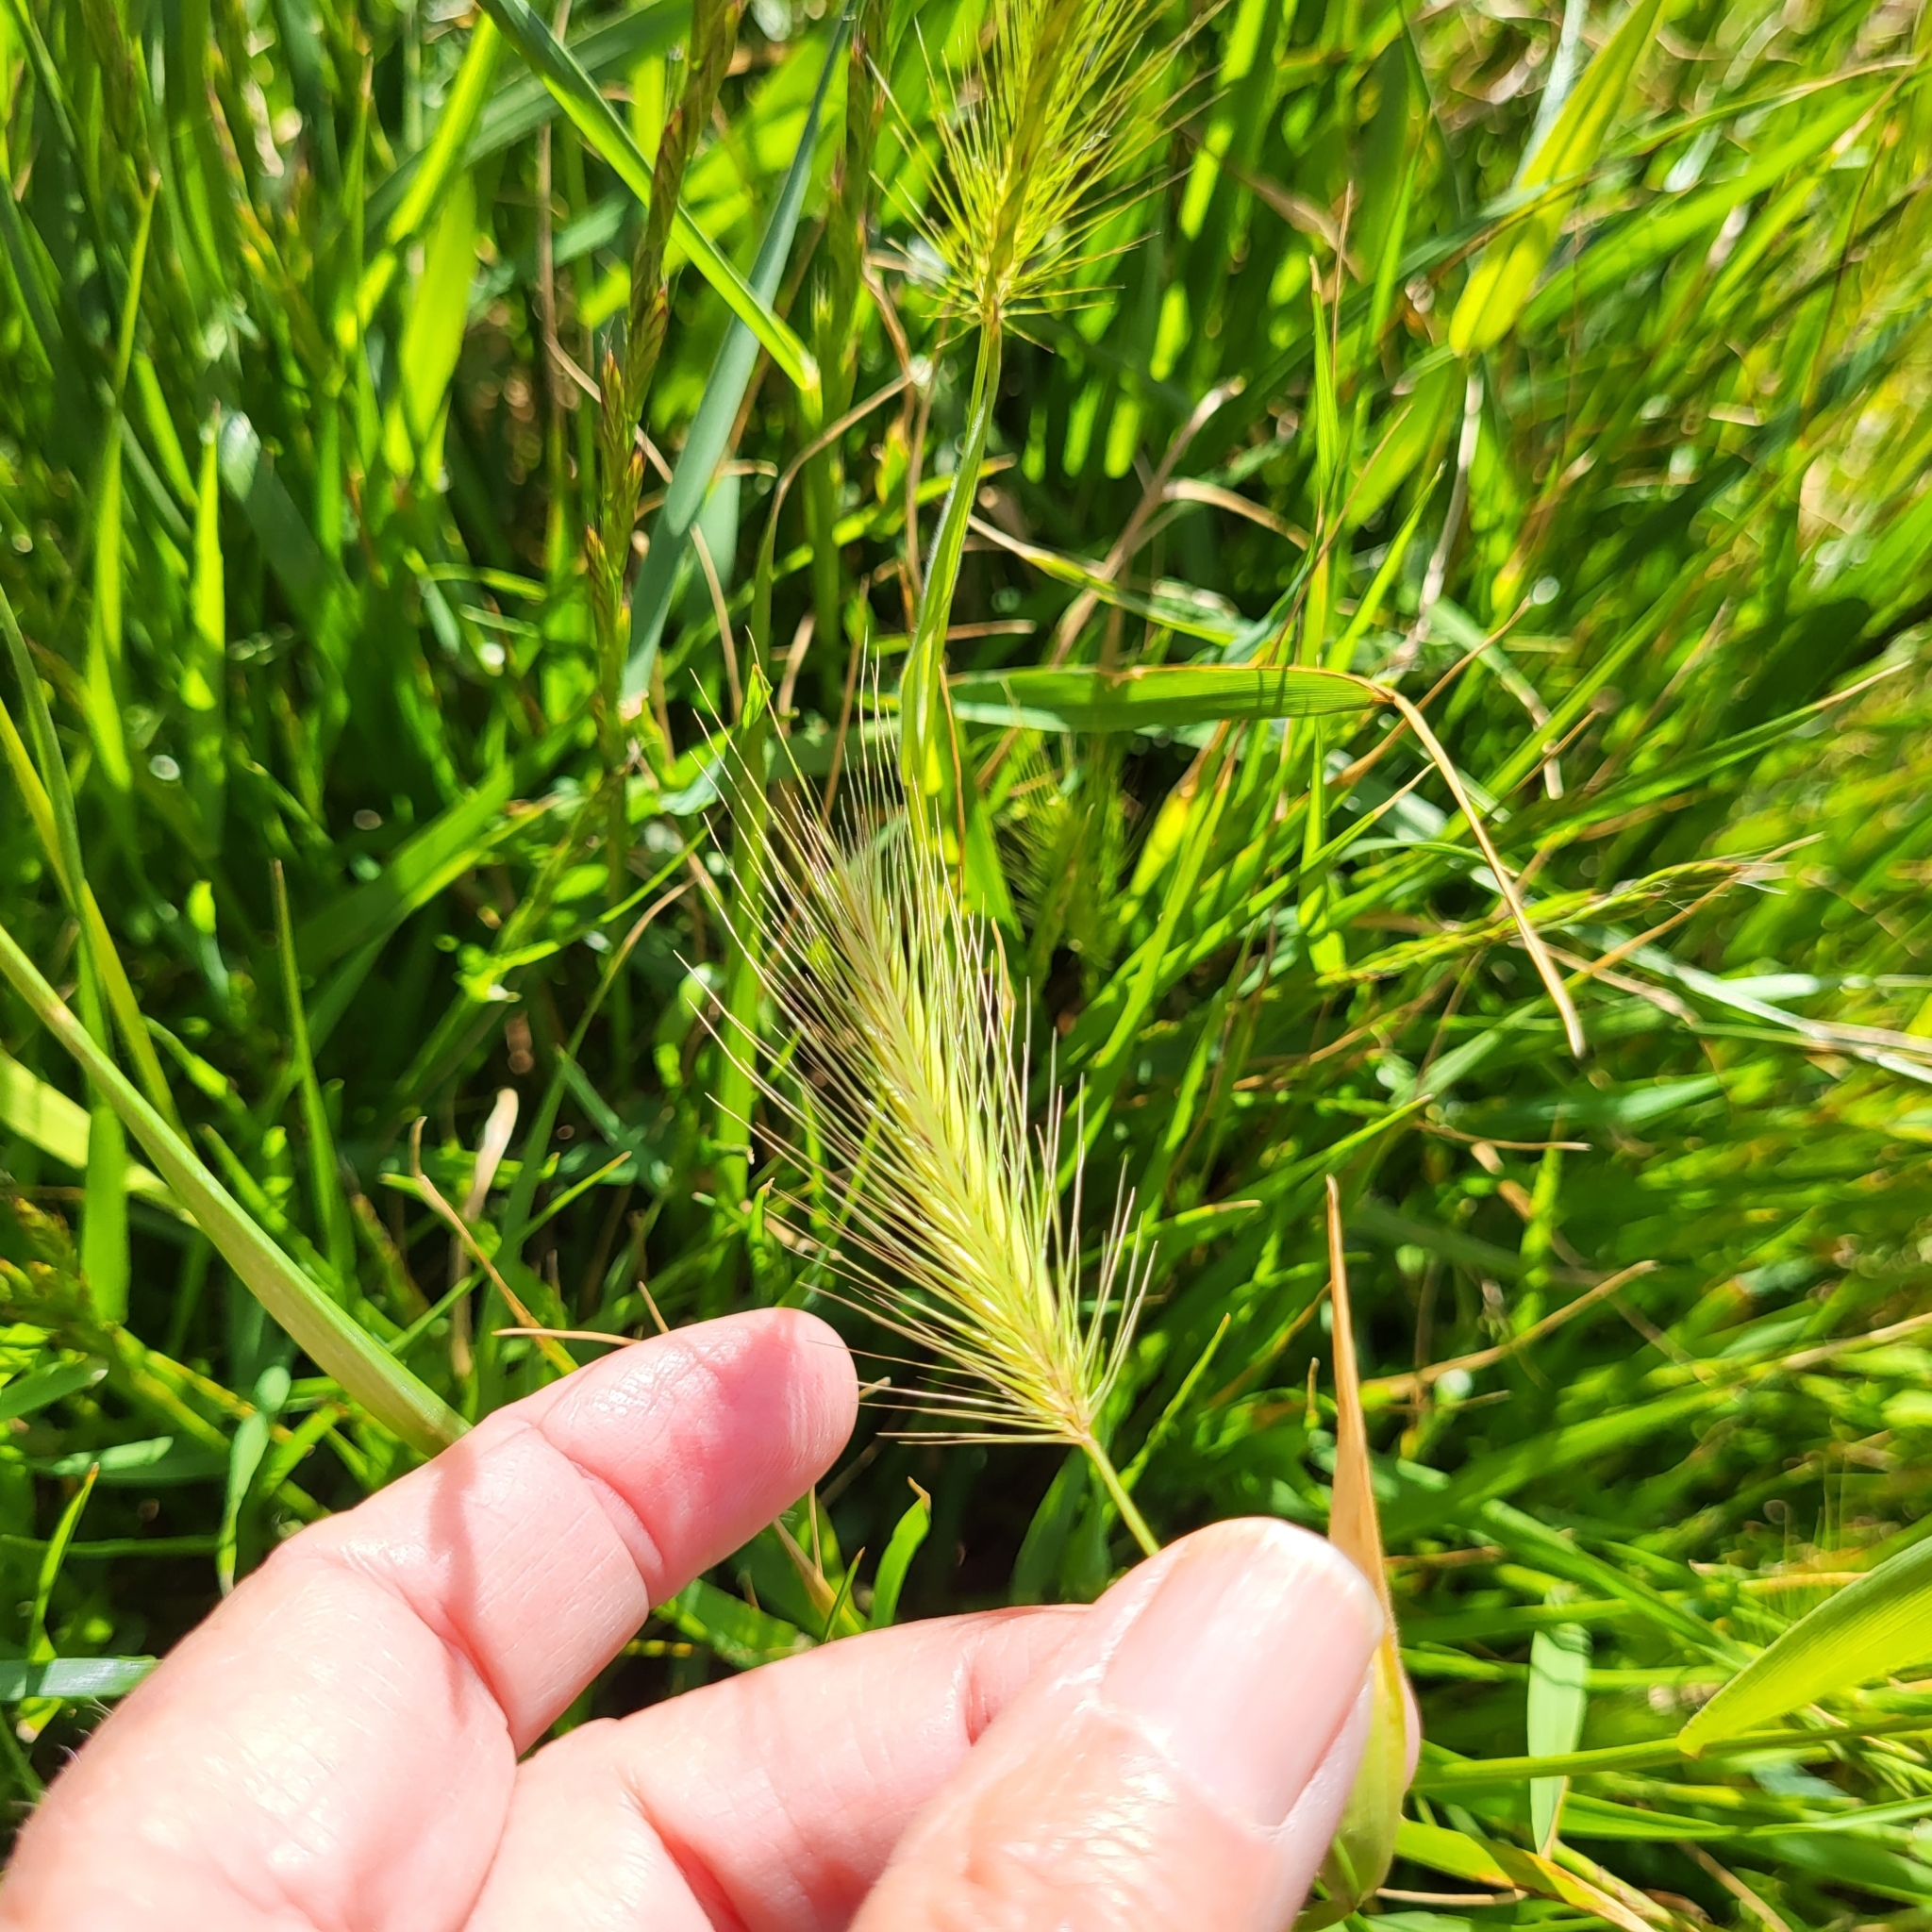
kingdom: Plantae
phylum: Tracheophyta
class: Liliopsida
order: Poales
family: Poaceae
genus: Hordeum
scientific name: Hordeum marinum
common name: Sea barley
